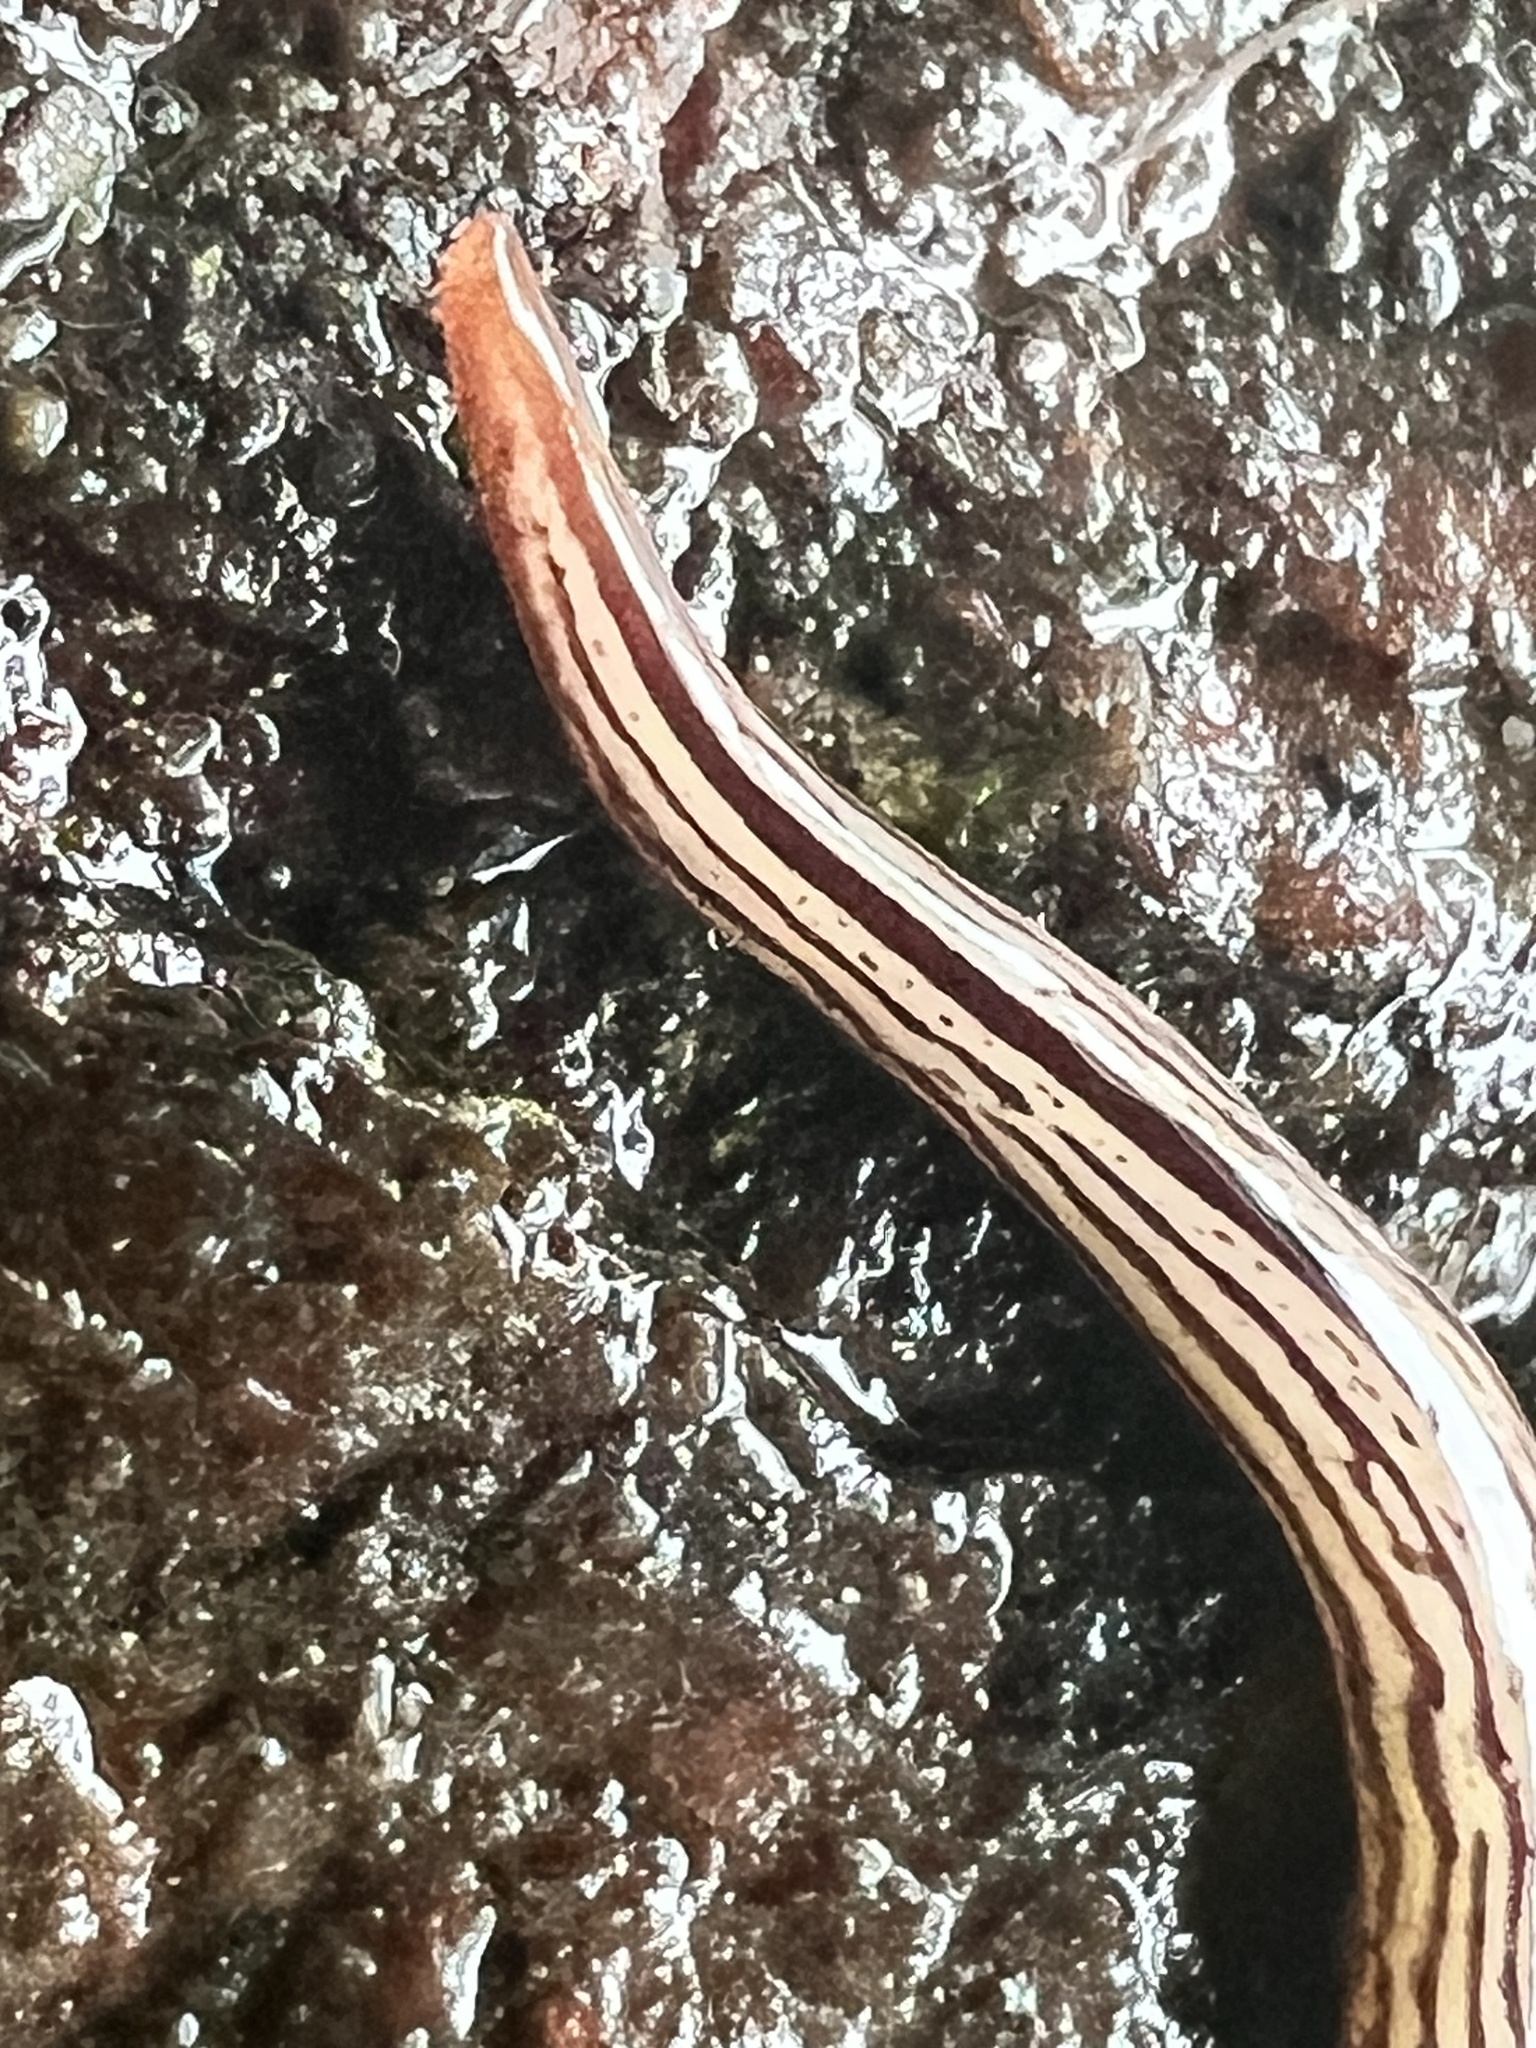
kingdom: Animalia
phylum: Platyhelminthes
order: Tricladida
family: Geoplanidae
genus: Artioposthia
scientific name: Artioposthia exulans
